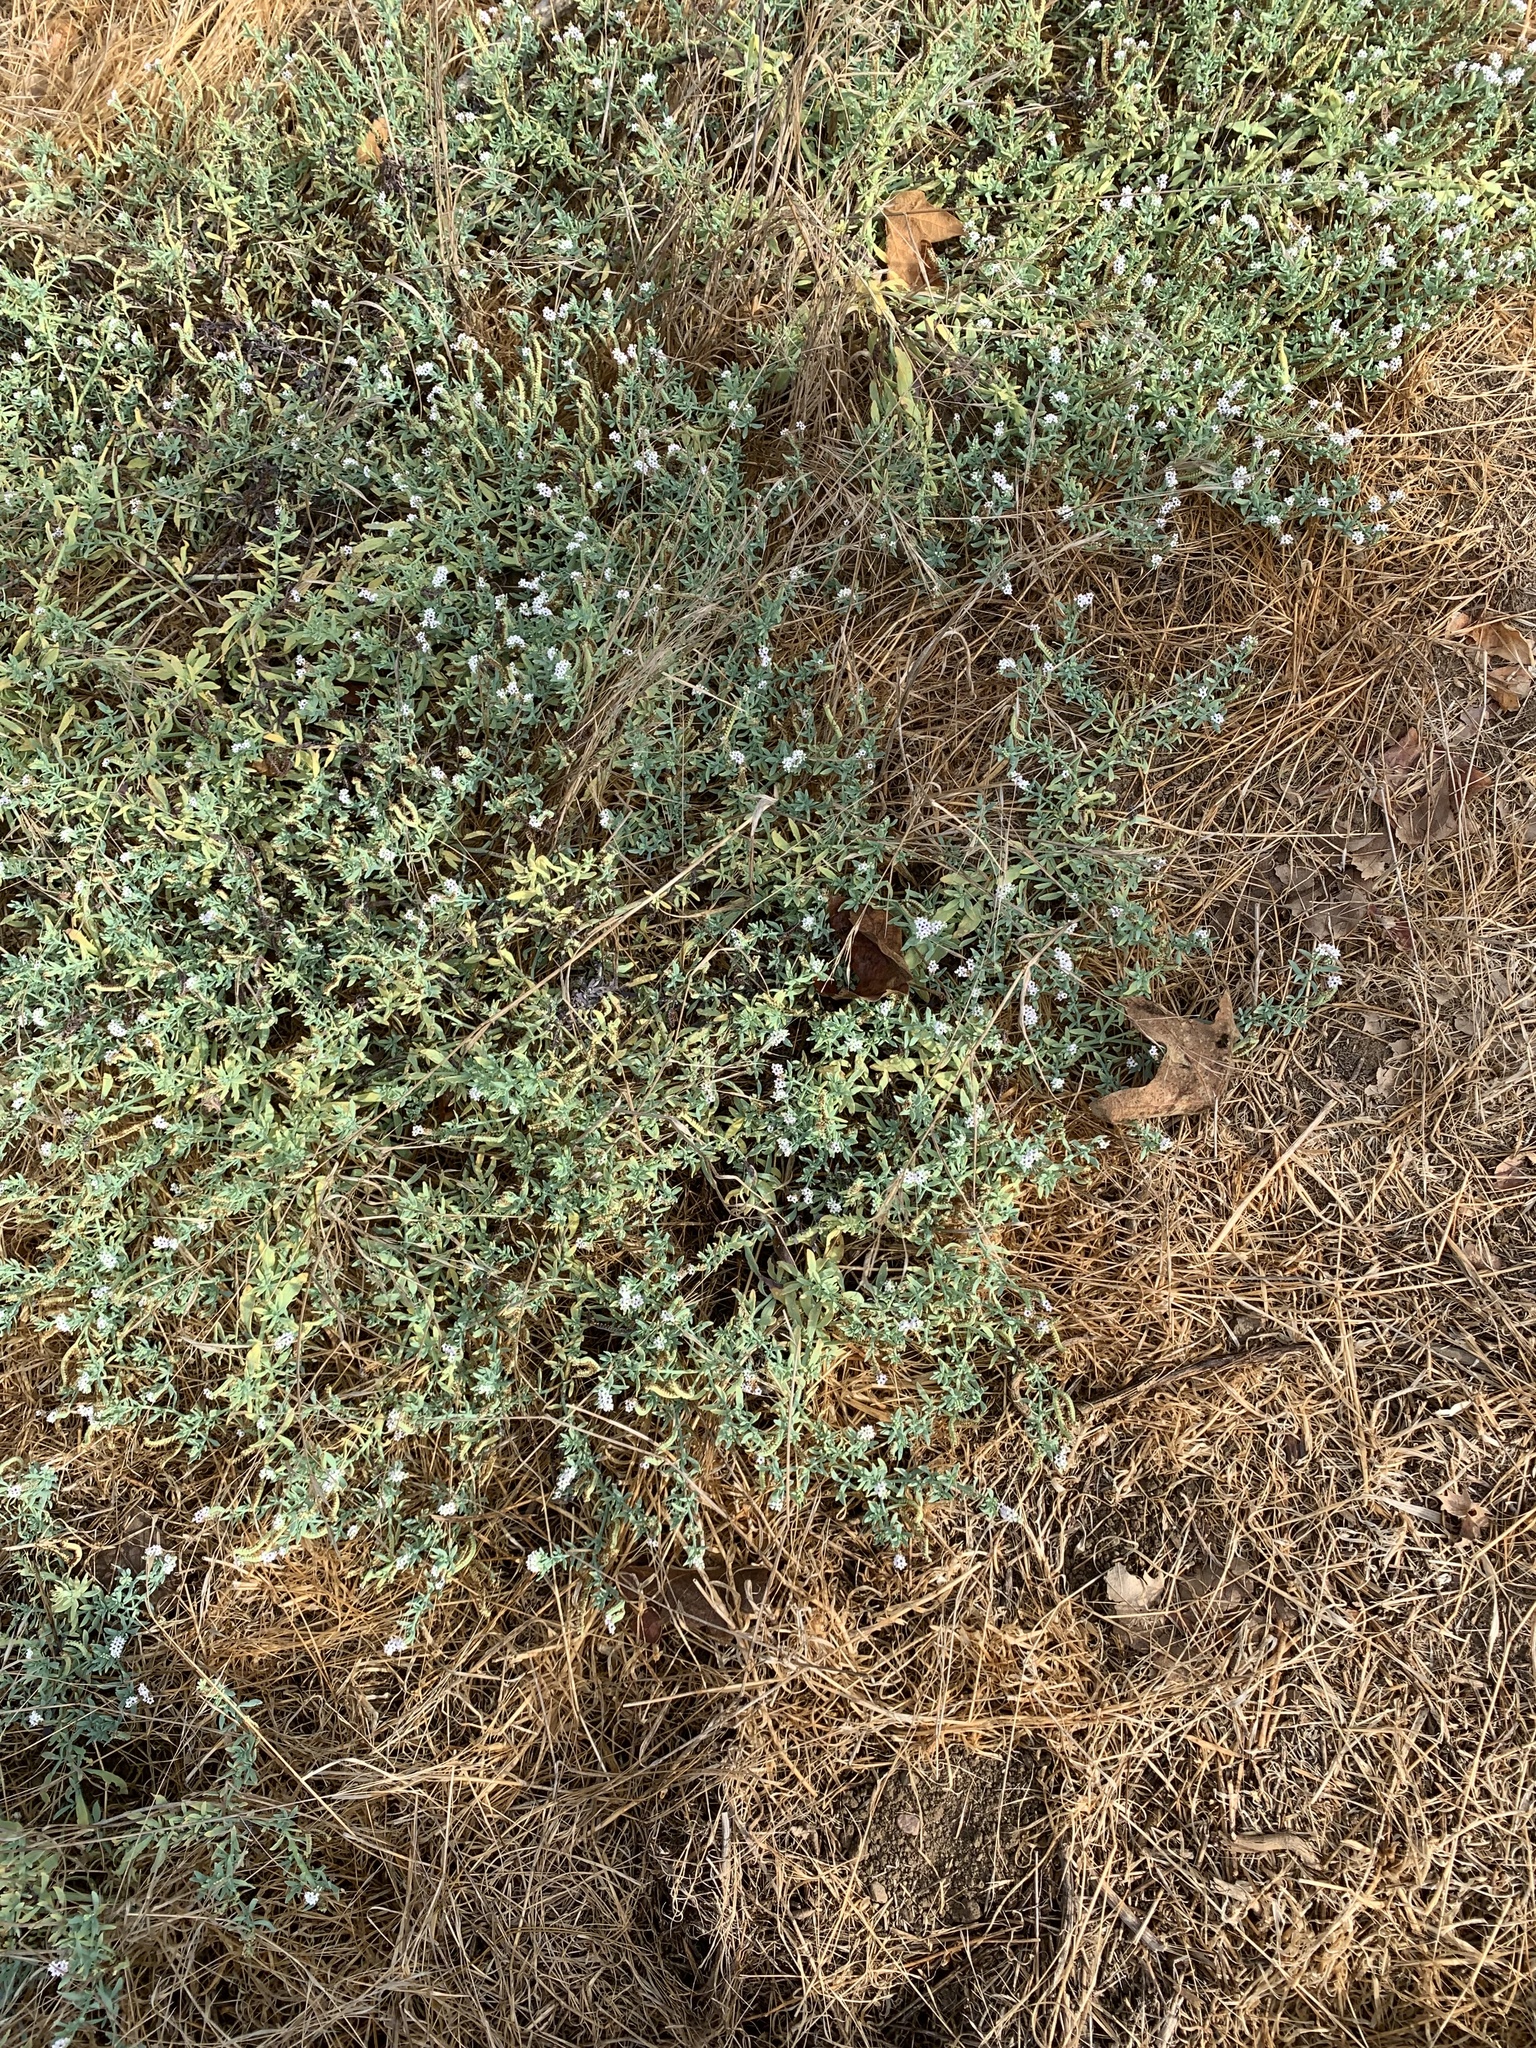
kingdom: Plantae
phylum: Tracheophyta
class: Magnoliopsida
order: Boraginales
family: Heliotropiaceae
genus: Heliotropium
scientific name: Heliotropium curassavicum
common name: Seaside heliotrope
